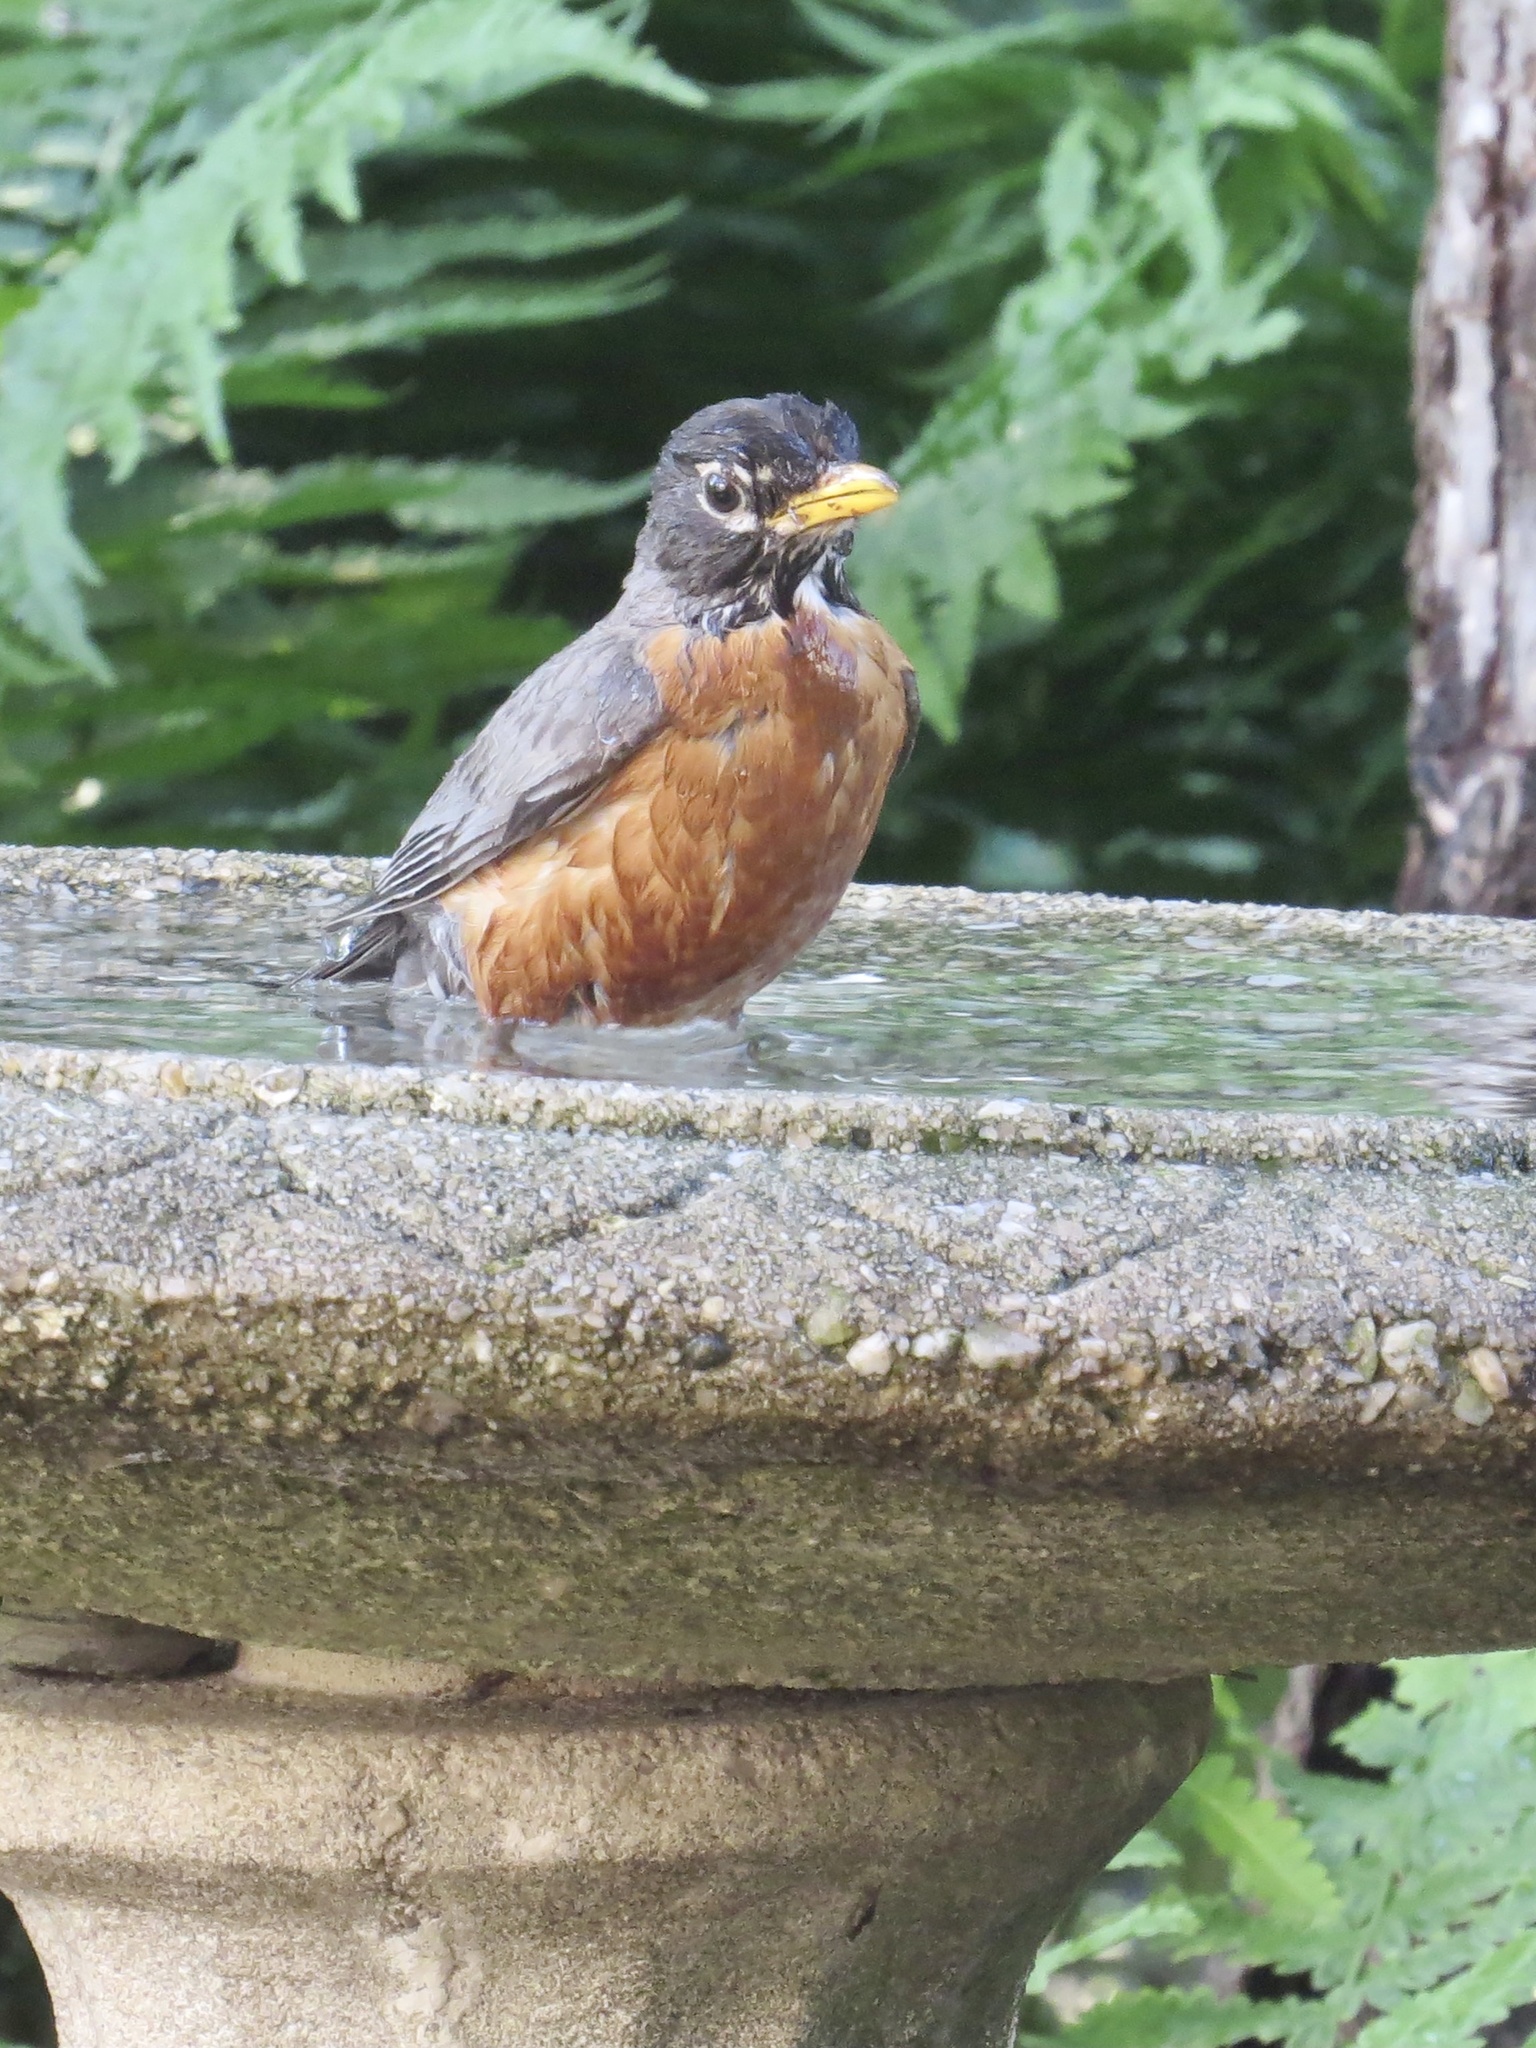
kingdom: Animalia
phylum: Chordata
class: Aves
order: Passeriformes
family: Turdidae
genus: Turdus
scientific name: Turdus migratorius
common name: American robin
